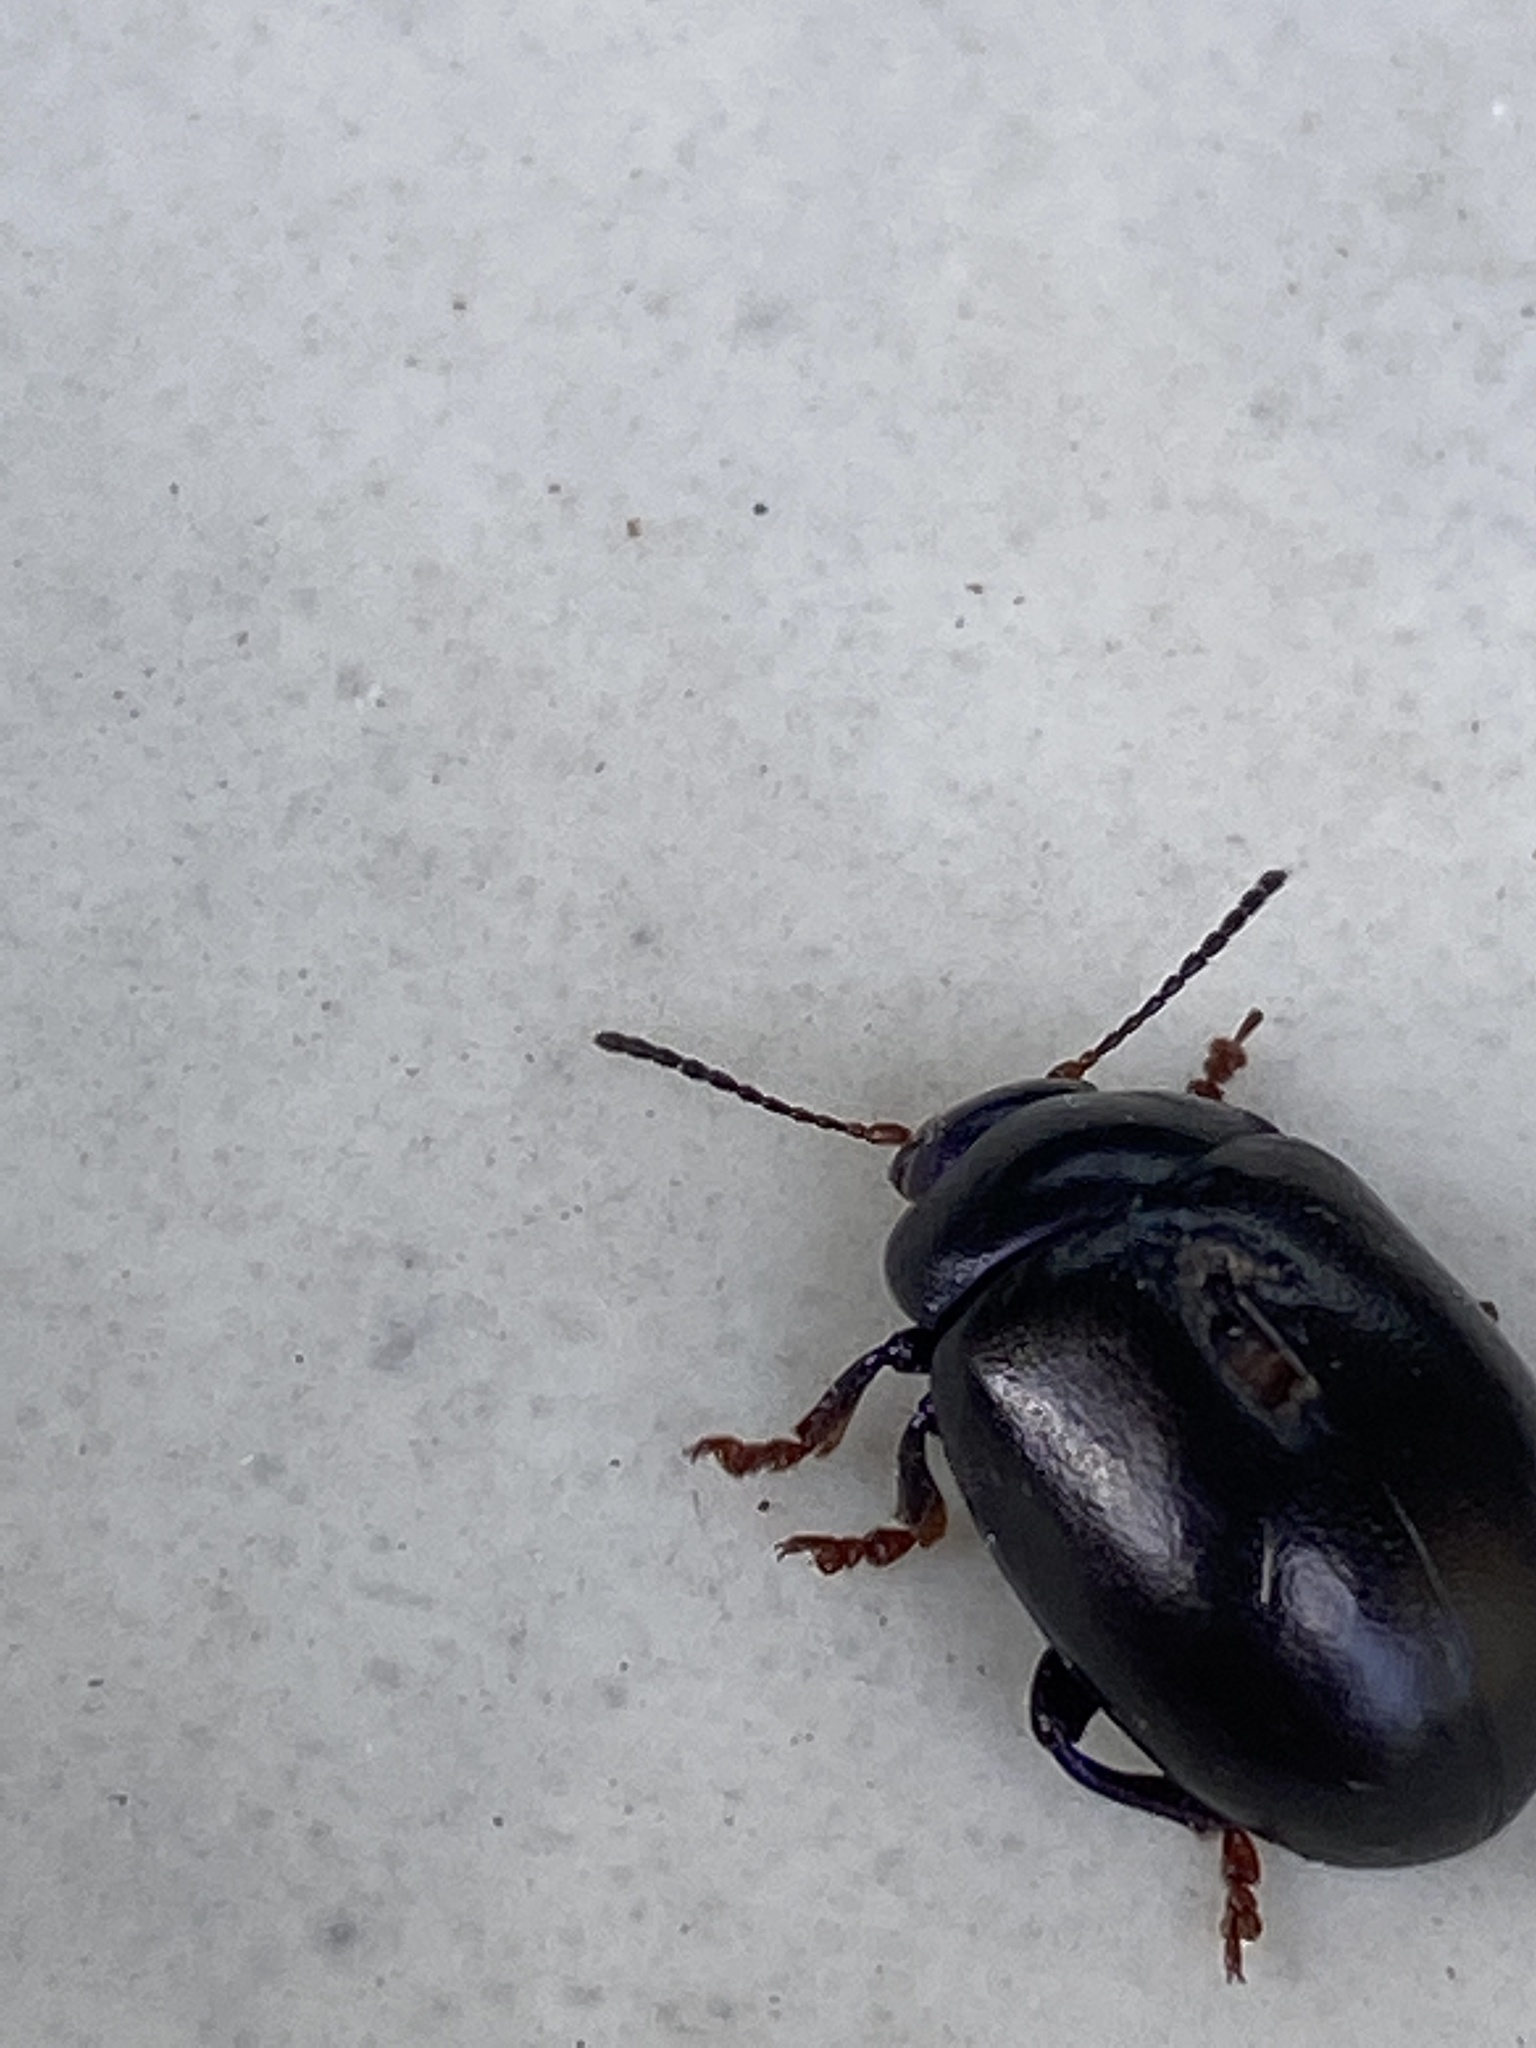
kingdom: Animalia
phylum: Arthropoda
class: Insecta
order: Coleoptera
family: Chrysomelidae
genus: Chrysolina
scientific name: Chrysolina sturmi
